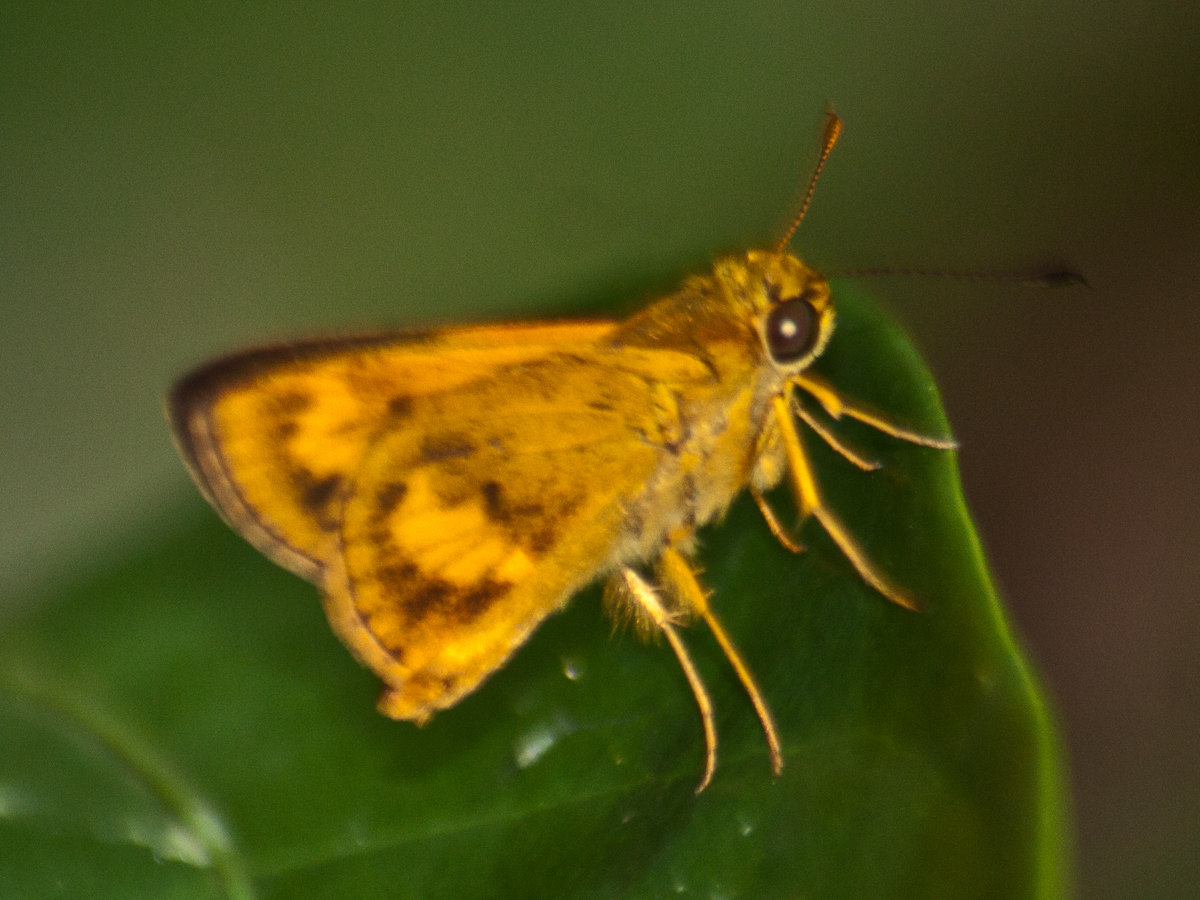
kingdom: Animalia
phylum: Arthropoda
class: Insecta
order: Lepidoptera
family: Hesperiidae
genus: Oriens
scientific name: Oriens gola
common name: Common dartlet
